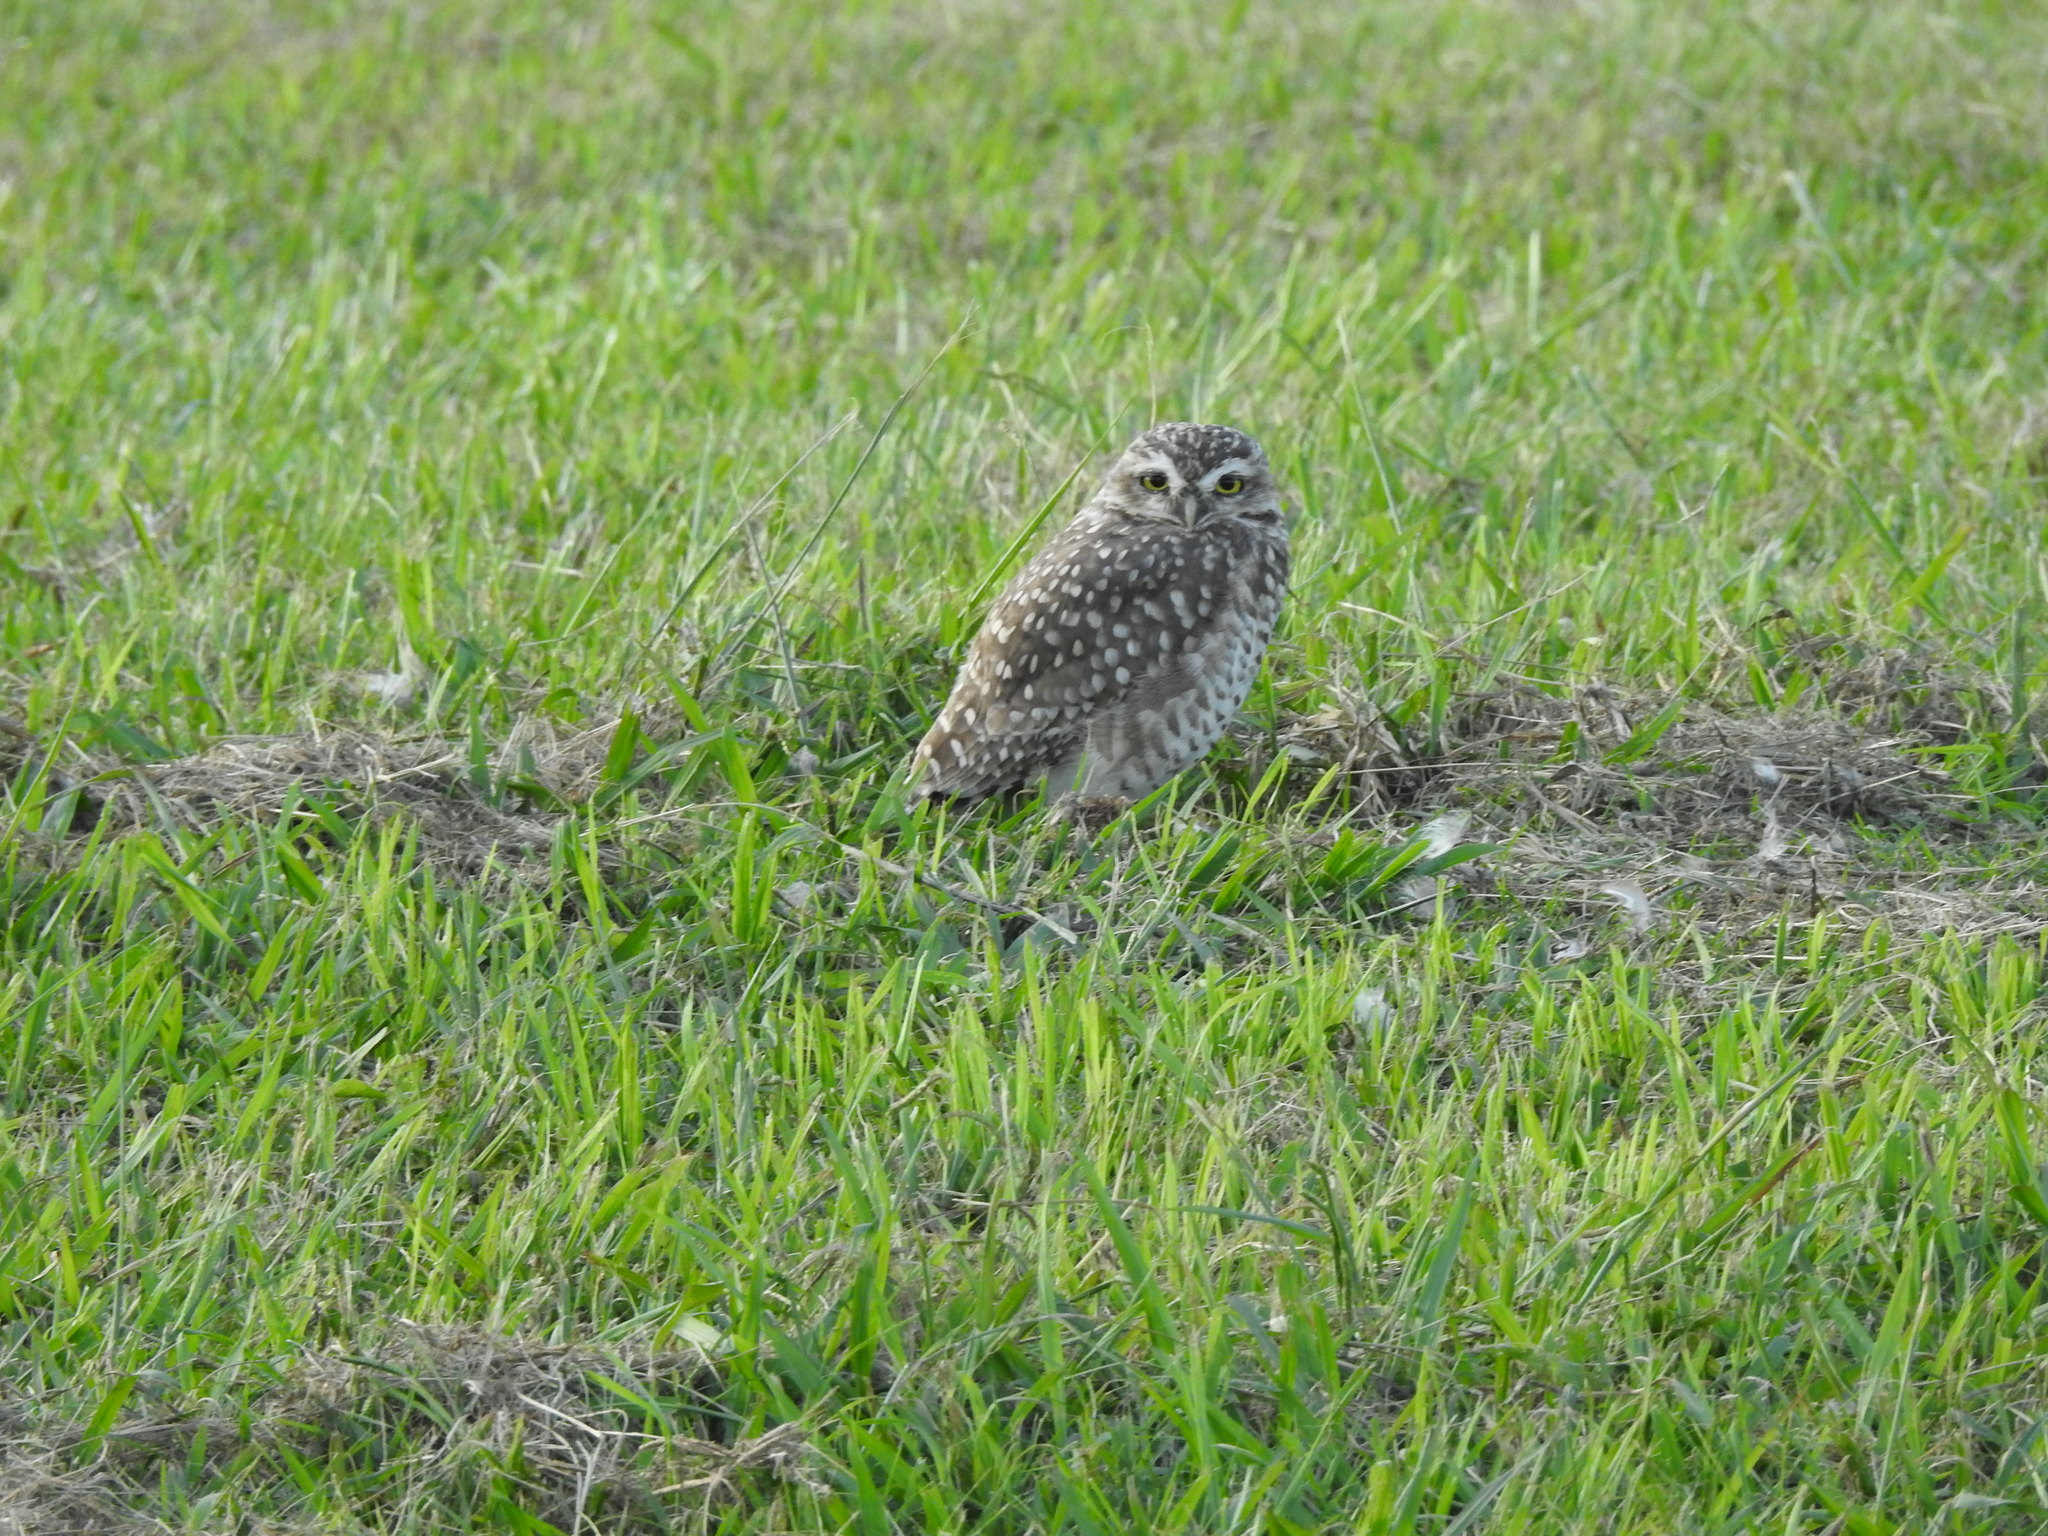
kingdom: Animalia
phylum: Chordata
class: Aves
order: Strigiformes
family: Strigidae
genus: Athene
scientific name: Athene cunicularia
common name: Burrowing owl
